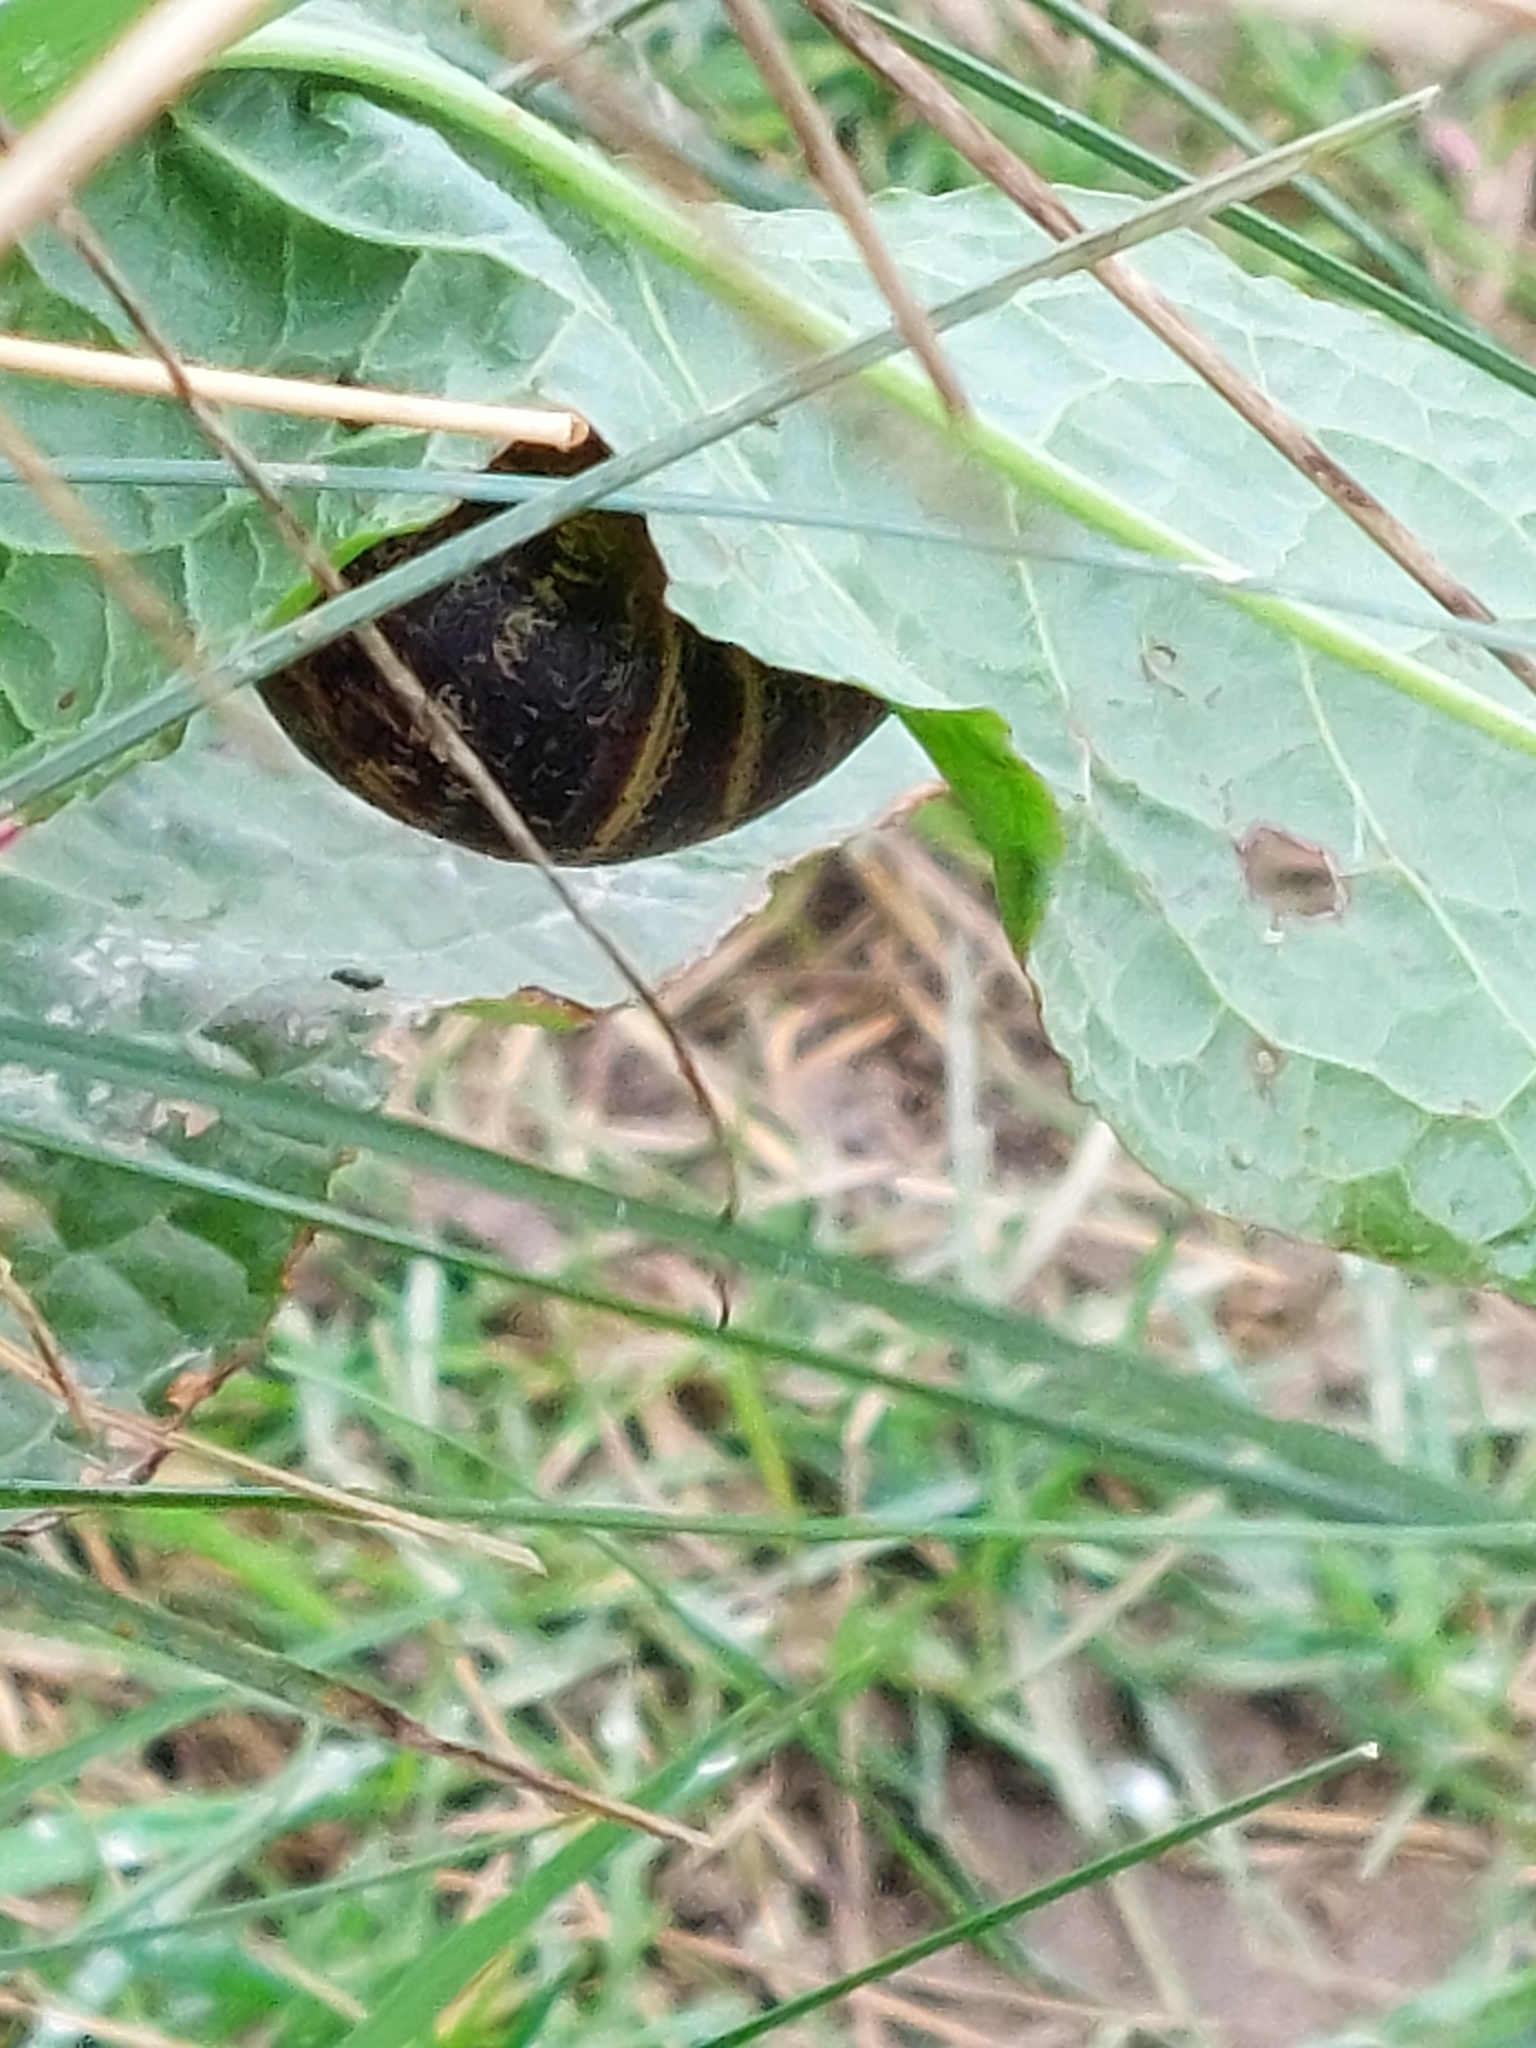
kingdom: Animalia
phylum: Mollusca
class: Gastropoda
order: Stylommatophora
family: Helicidae
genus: Cornu
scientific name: Cornu aspersum
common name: Brown garden snail
